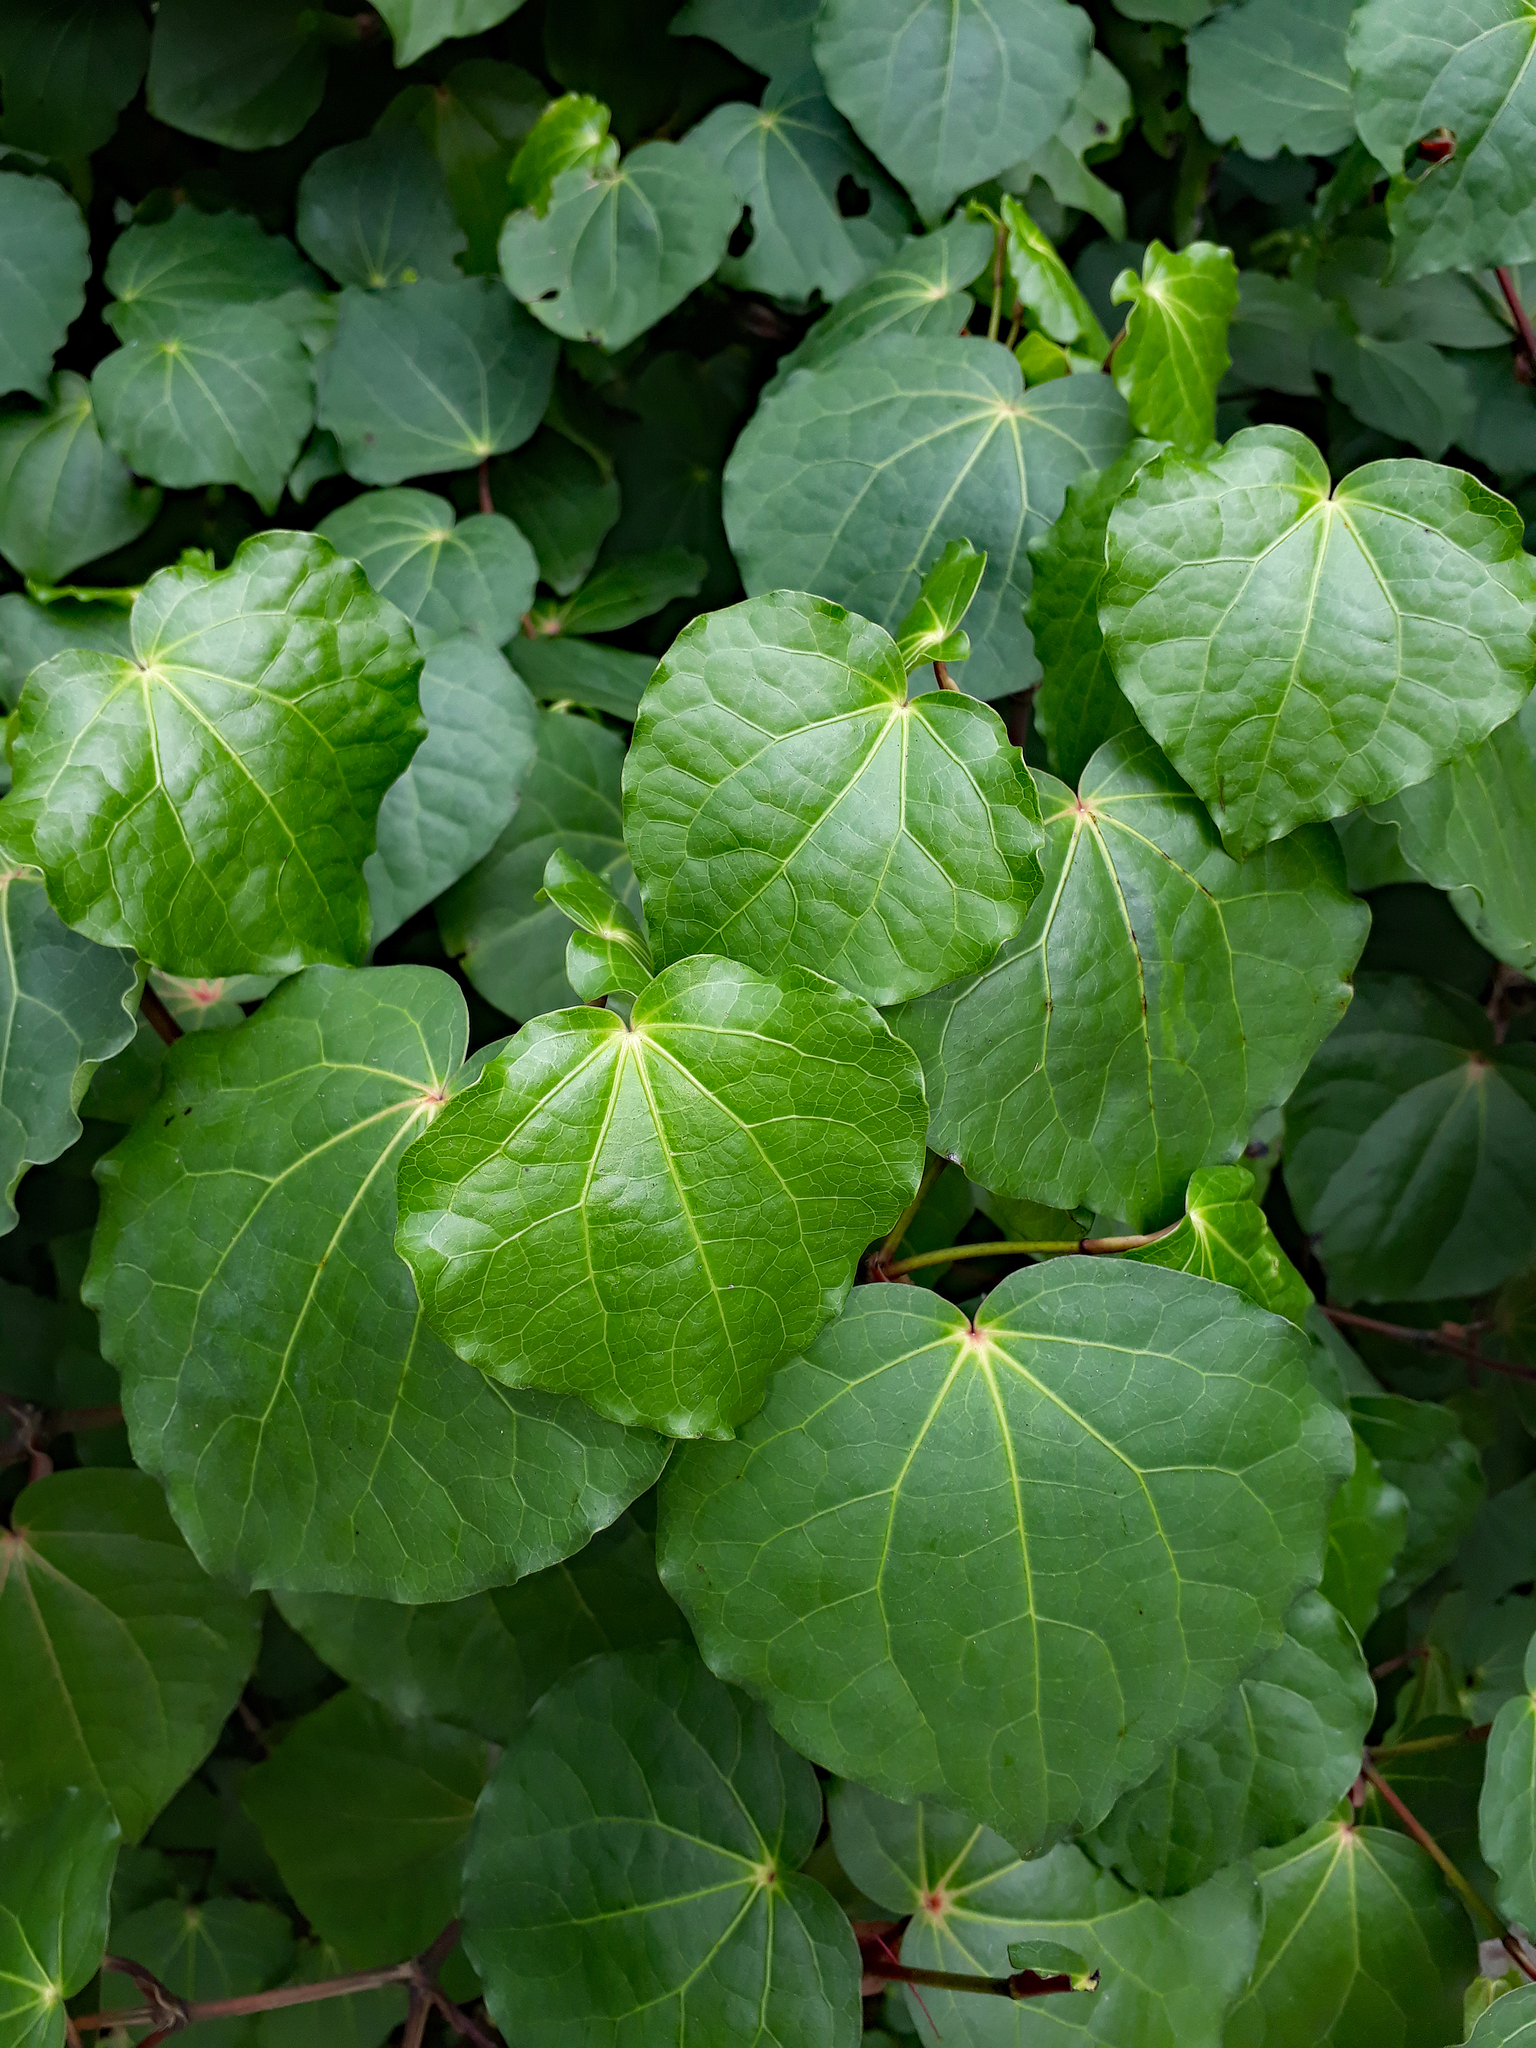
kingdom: Plantae
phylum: Tracheophyta
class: Magnoliopsida
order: Piperales
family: Piperaceae
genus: Macropiper
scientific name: Macropiper excelsum
